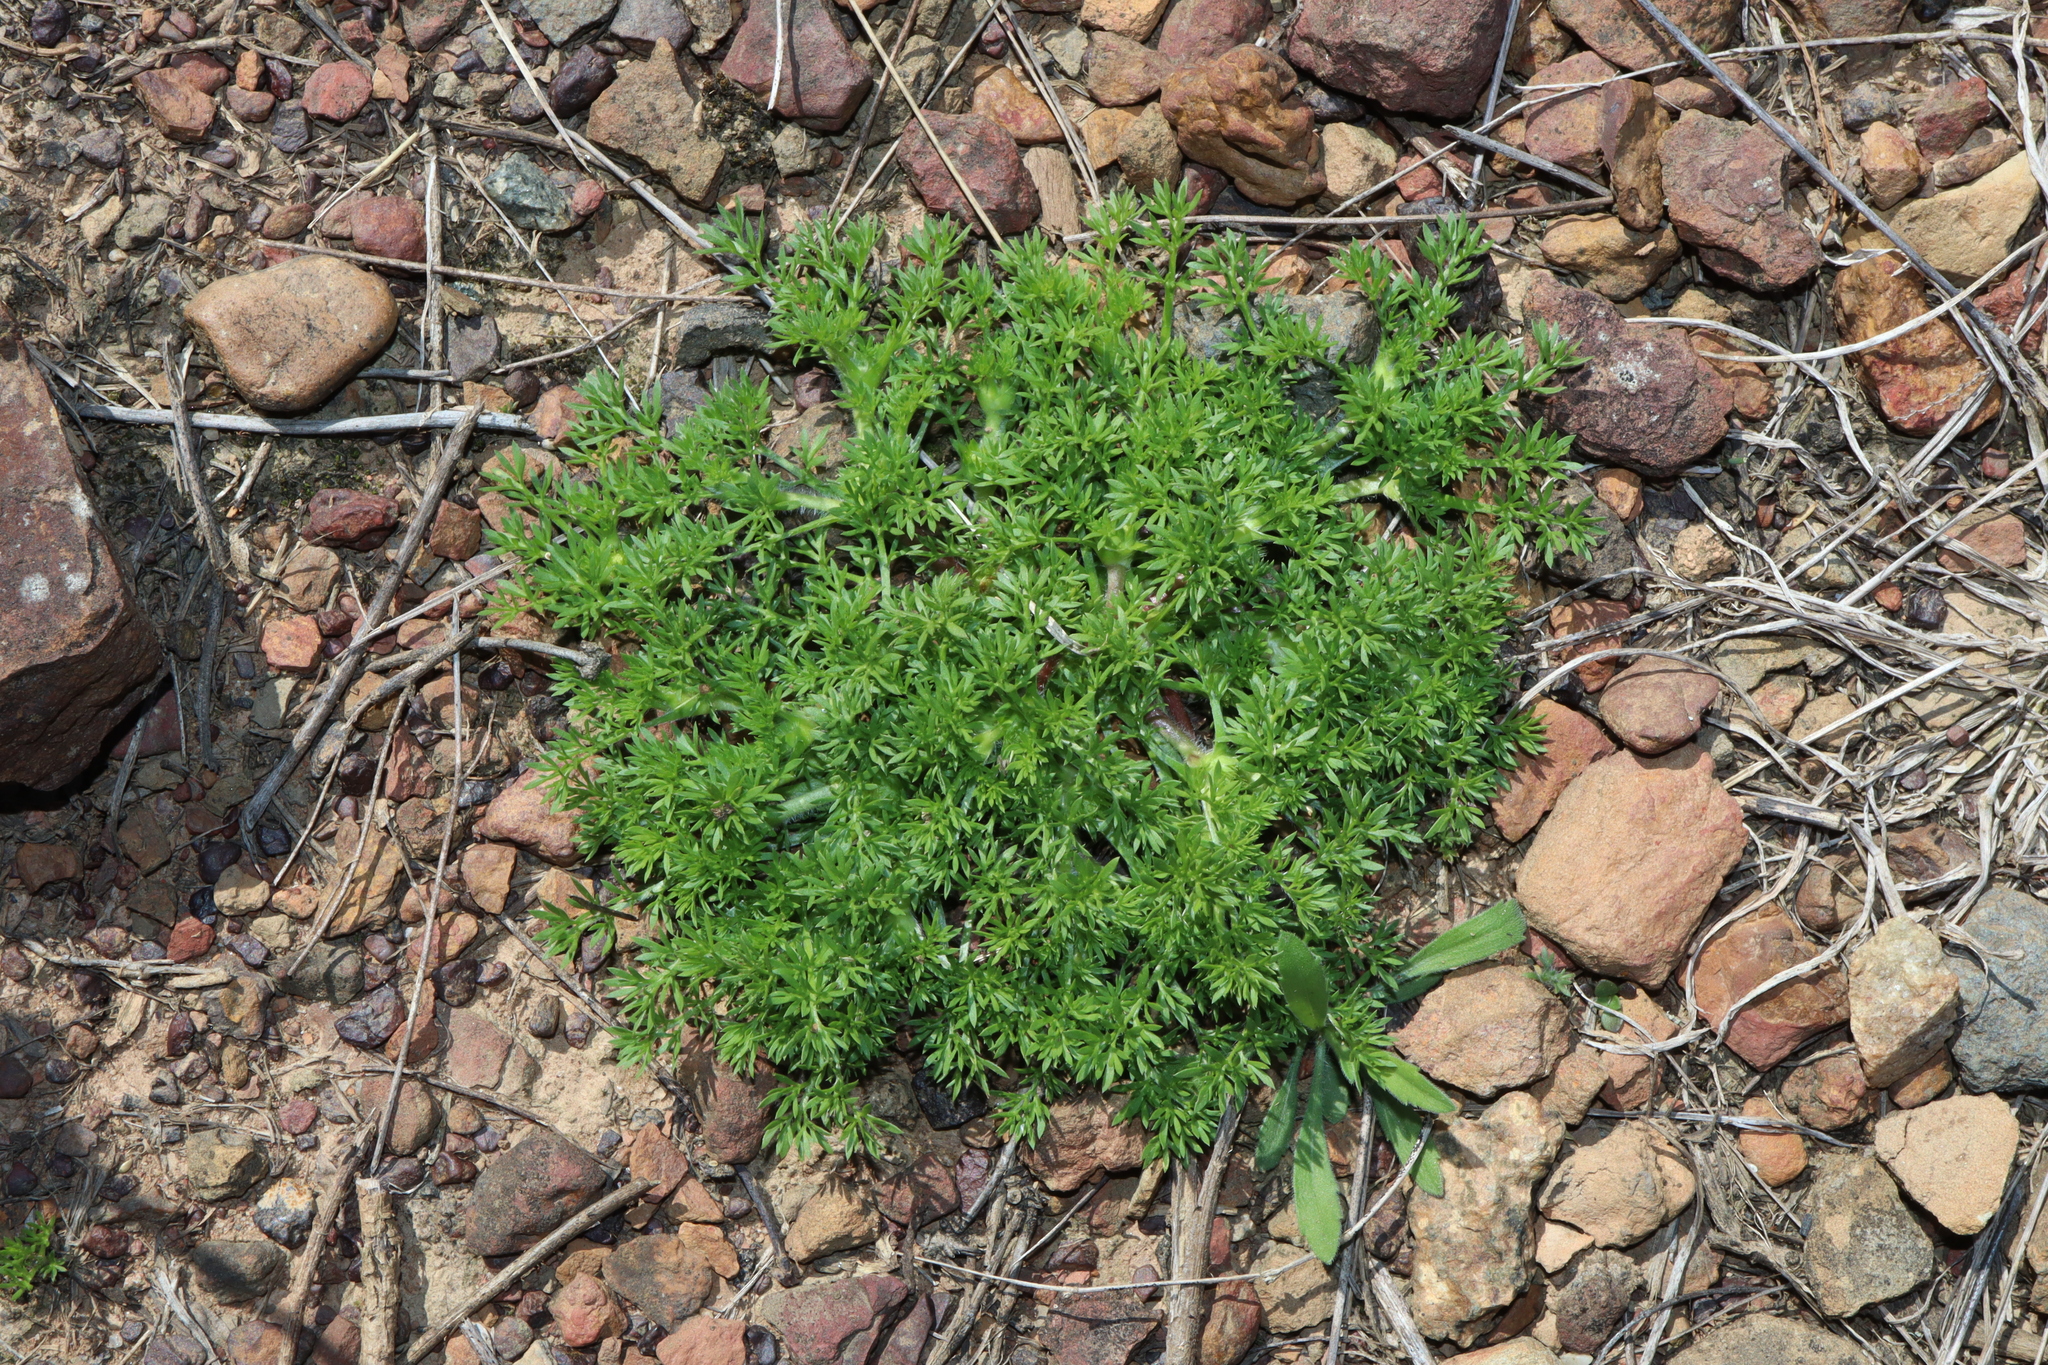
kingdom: Plantae
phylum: Tracheophyta
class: Magnoliopsida
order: Asterales
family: Asteraceae
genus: Soliva
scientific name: Soliva sessilis
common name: Field burrweed
